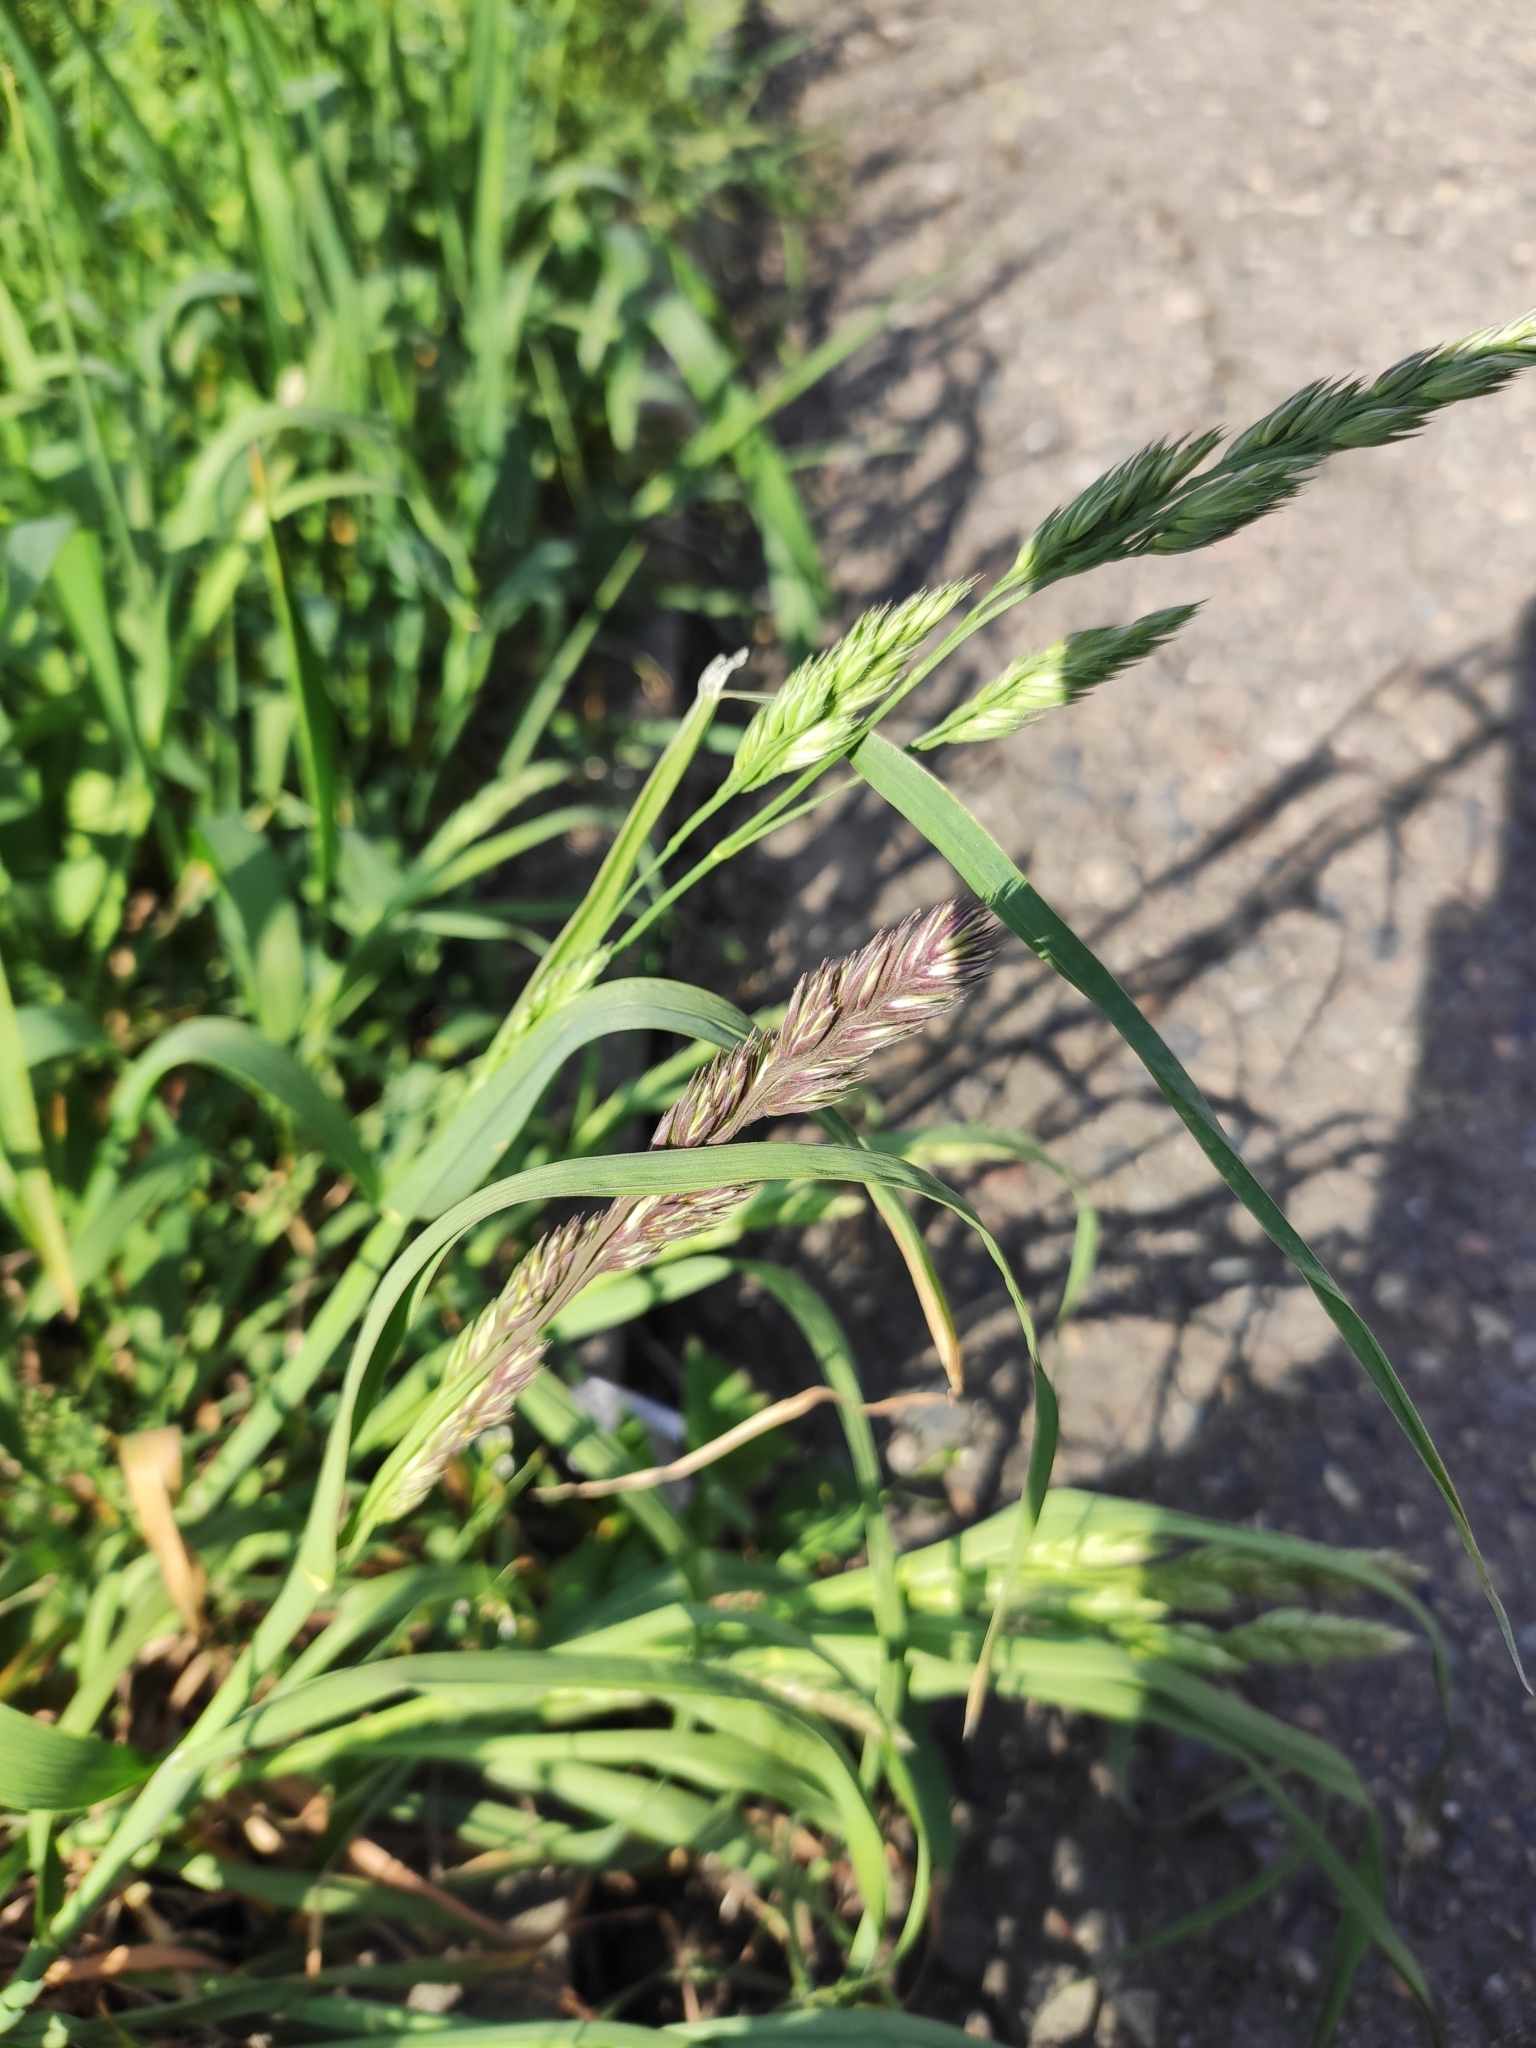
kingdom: Plantae
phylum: Tracheophyta
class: Liliopsida
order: Poales
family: Poaceae
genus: Dactylis
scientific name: Dactylis glomerata
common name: Orchardgrass
